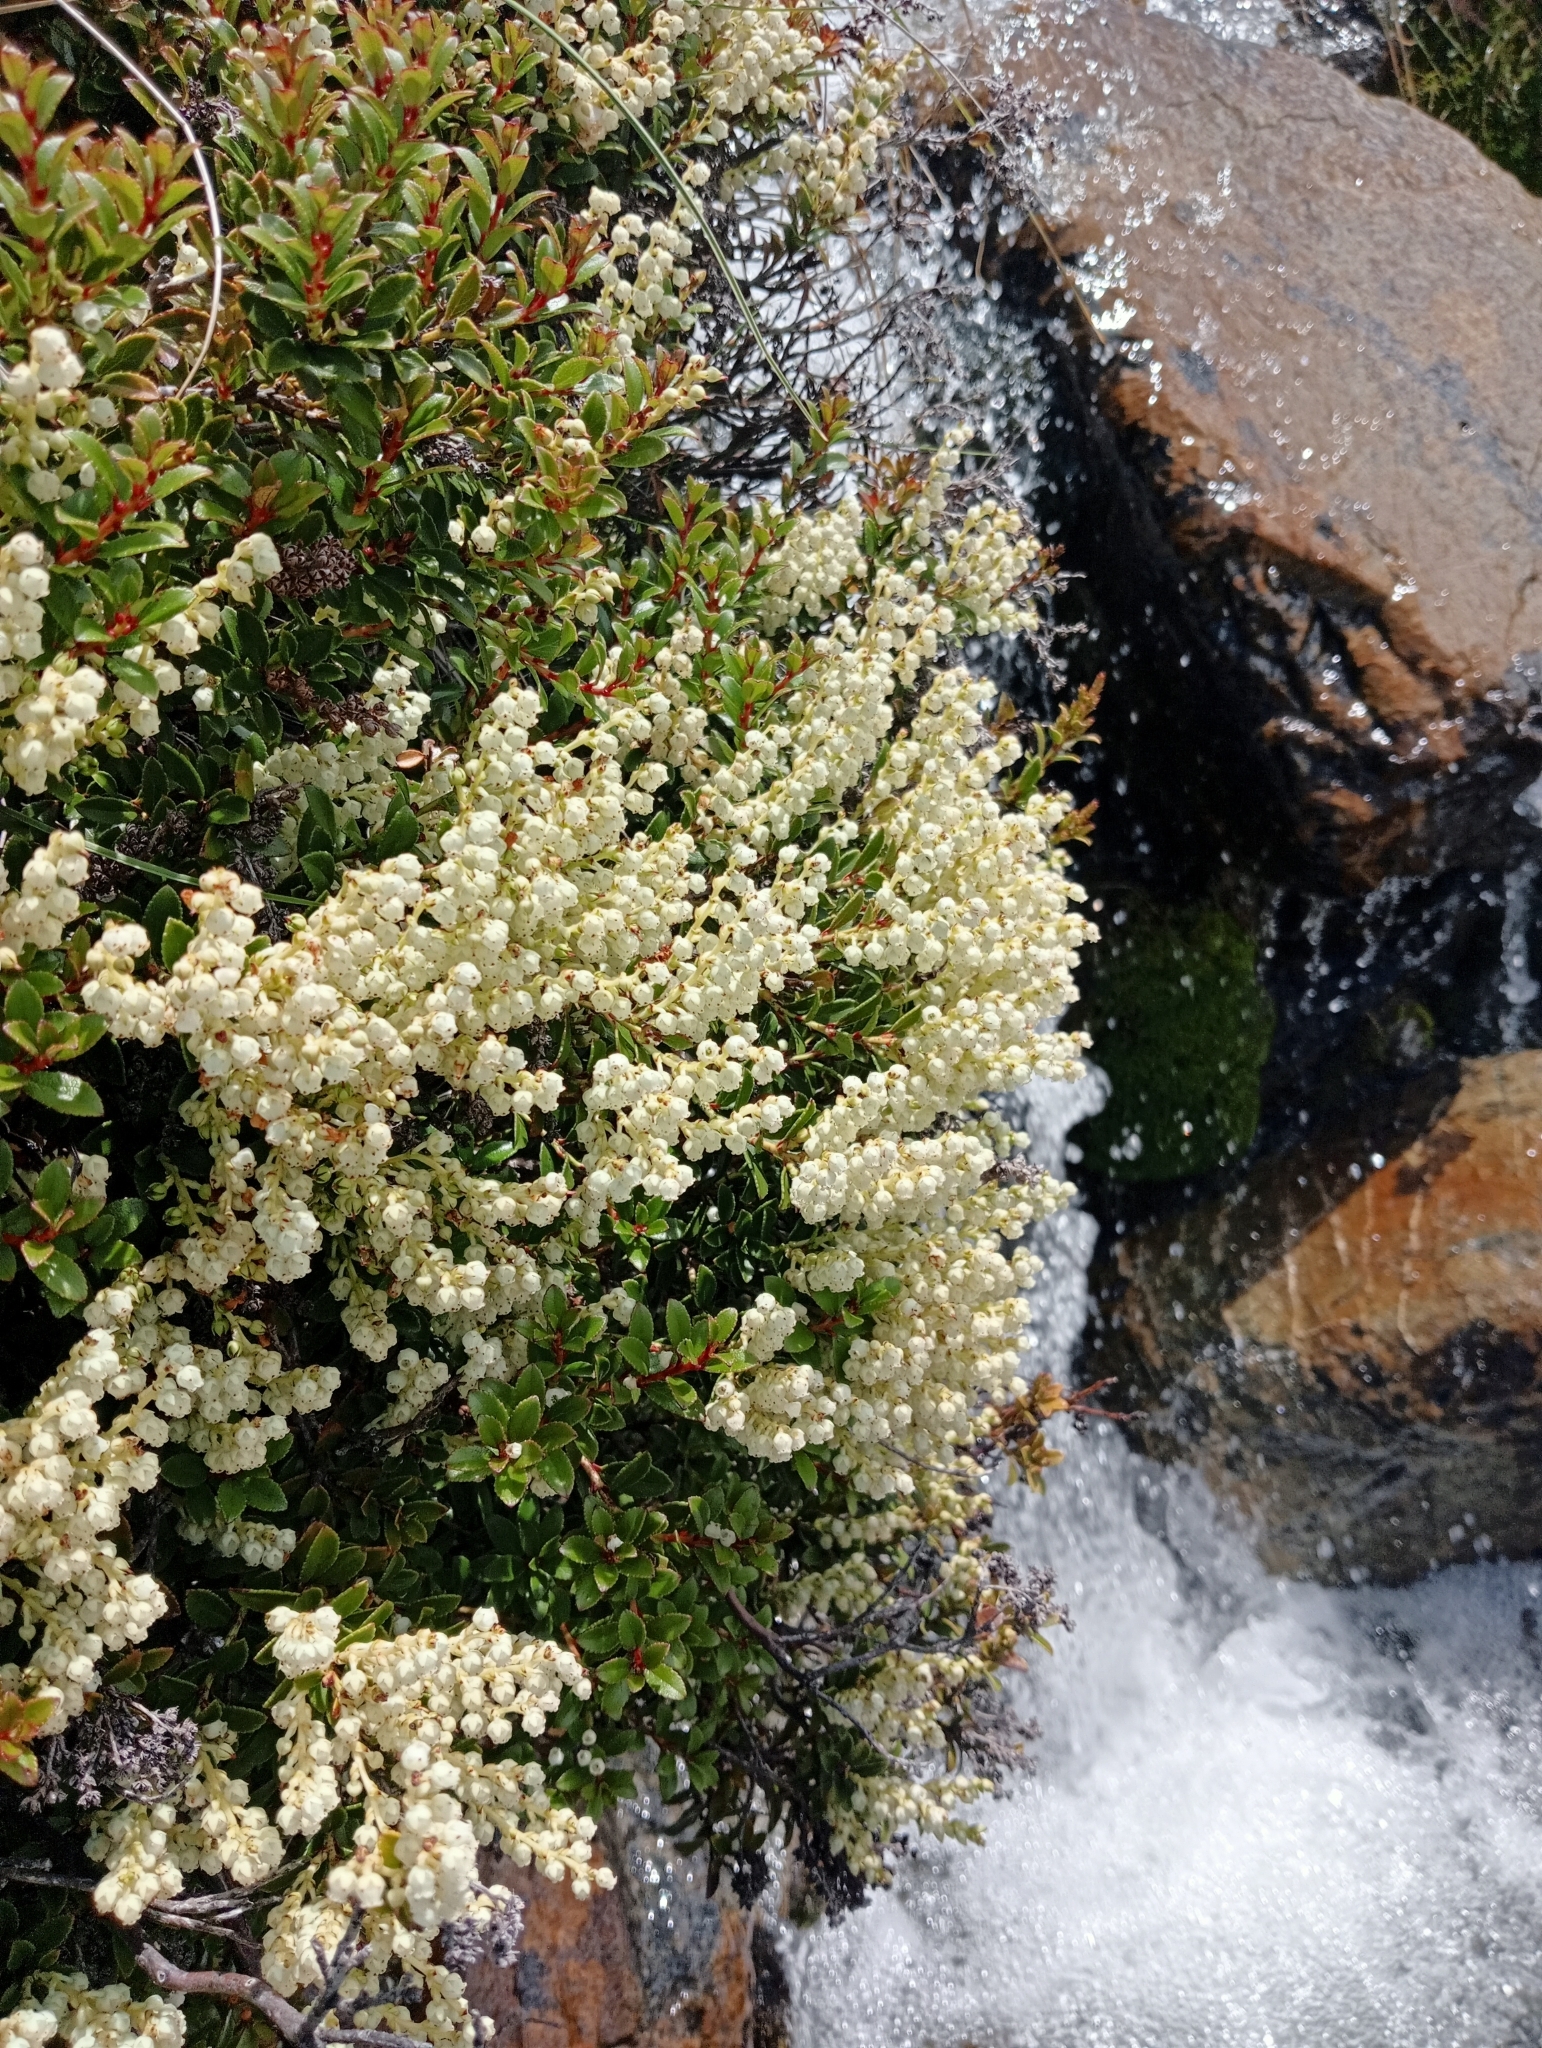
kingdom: Plantae
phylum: Tracheophyta
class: Magnoliopsida
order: Ericales
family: Ericaceae
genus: Gaultheria
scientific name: Gaultheria crassa
